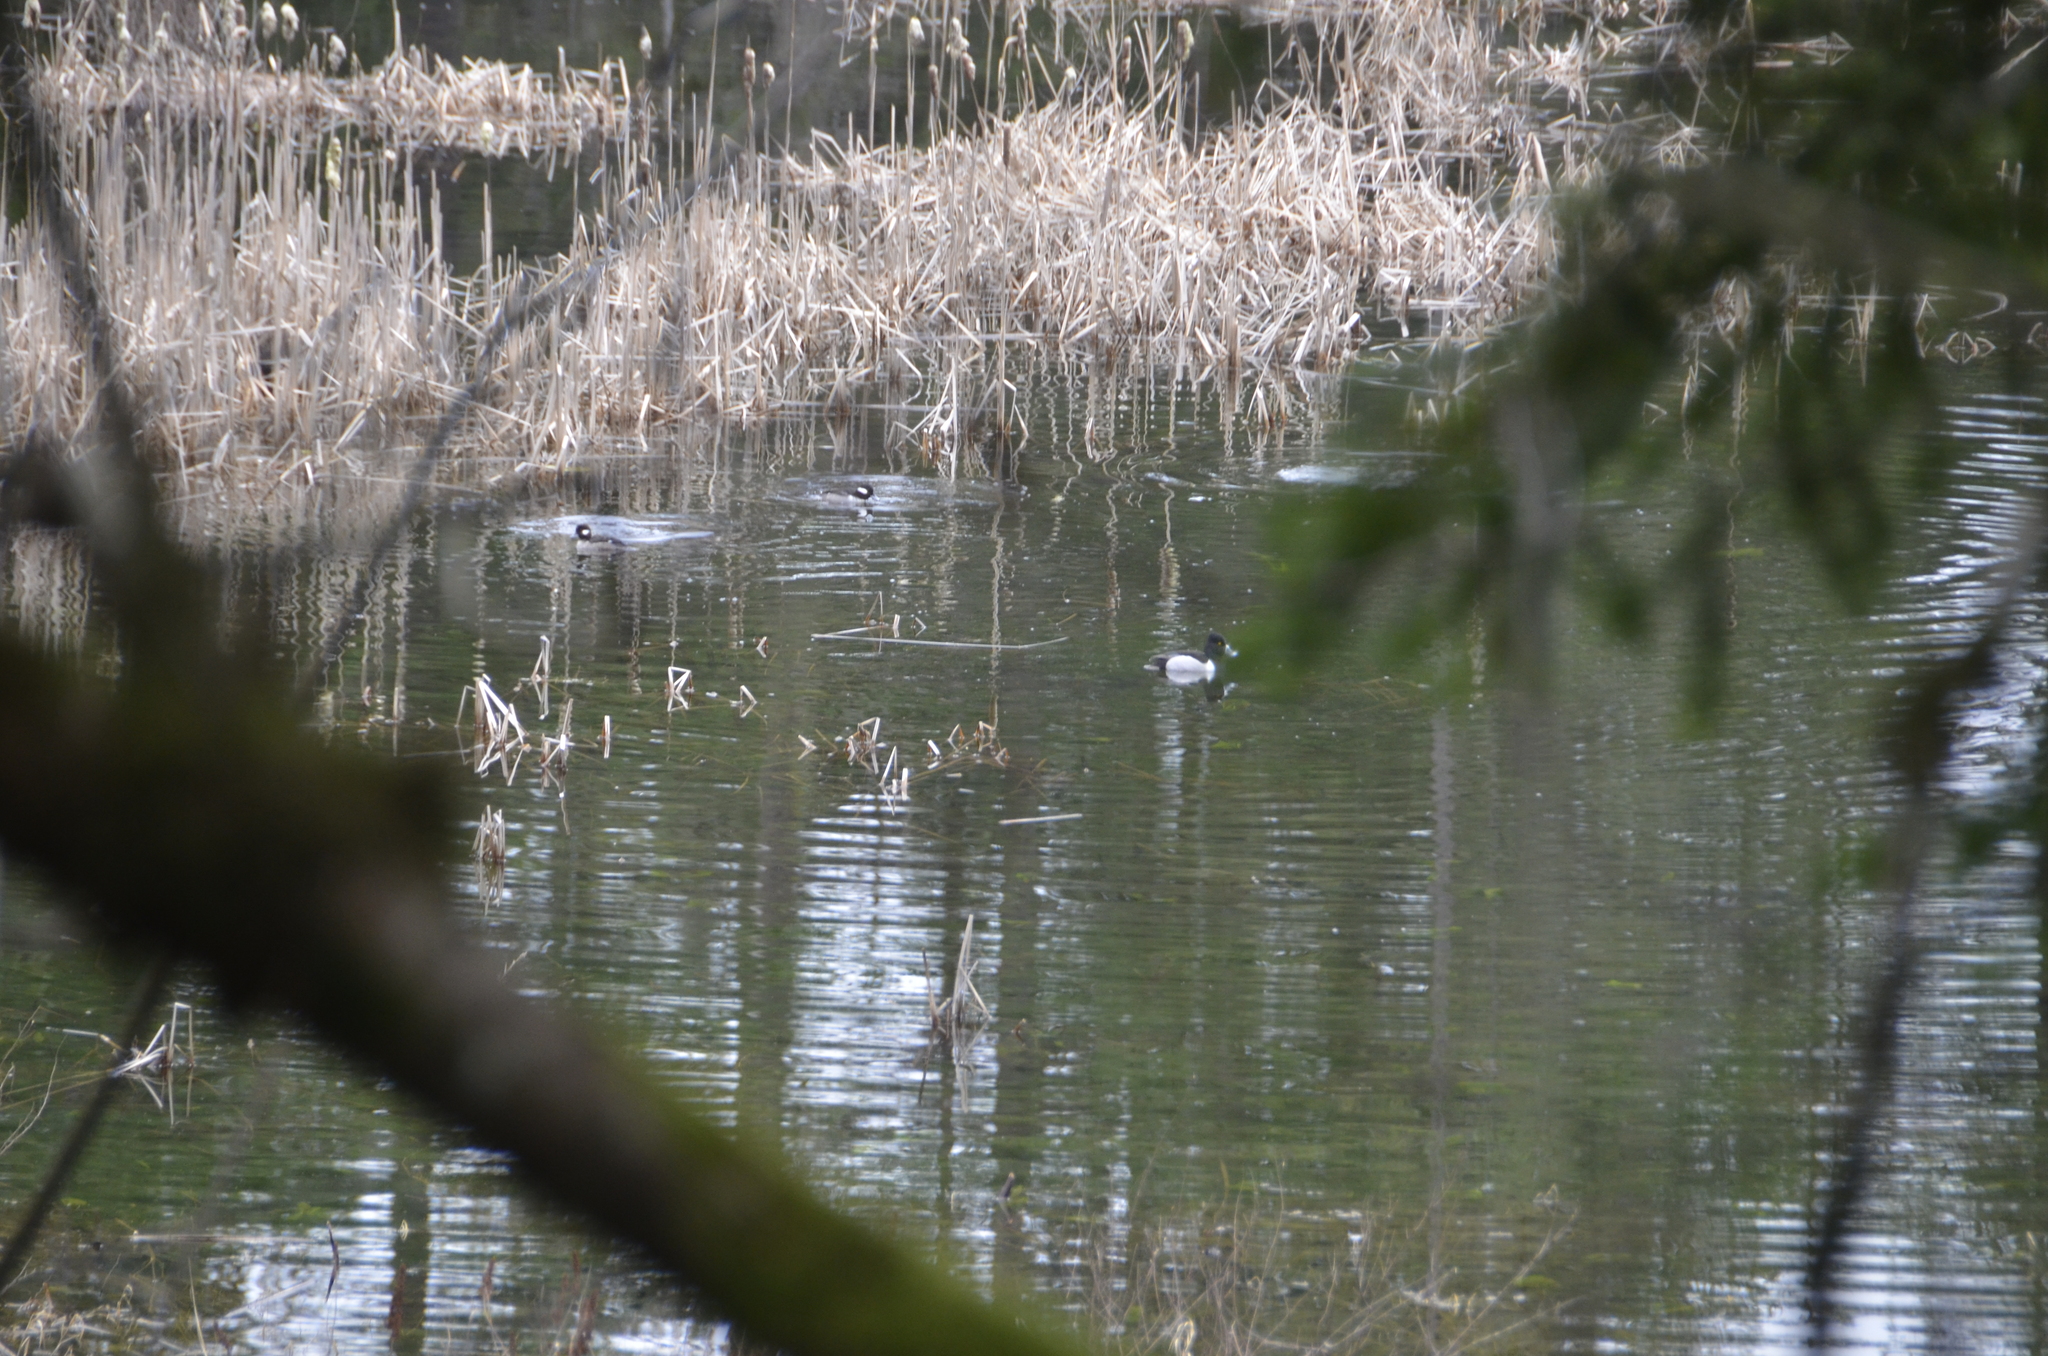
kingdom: Animalia
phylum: Chordata
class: Aves
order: Anseriformes
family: Anatidae
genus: Bucephala
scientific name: Bucephala albeola
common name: Bufflehead
